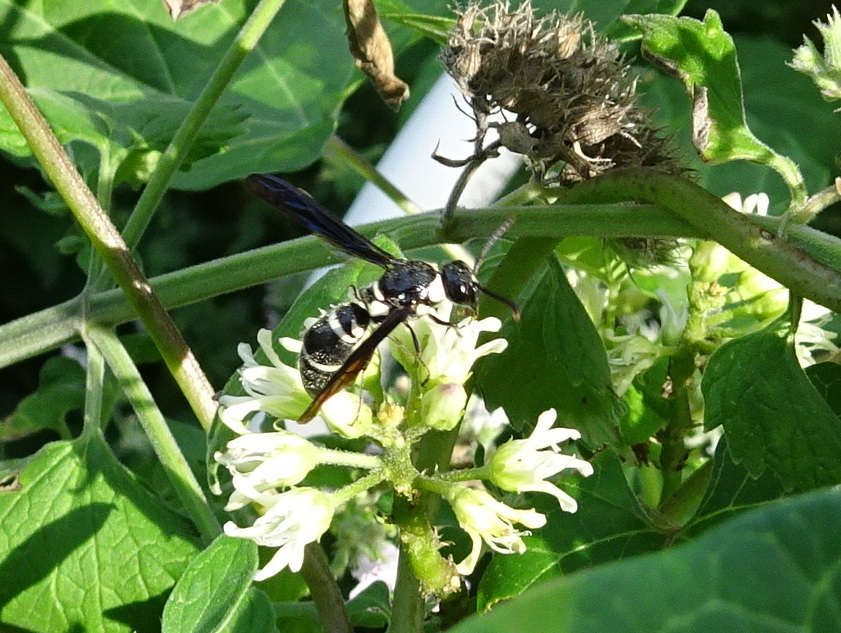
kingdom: Animalia
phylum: Arthropoda
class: Insecta
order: Hymenoptera
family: Eumenidae
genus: Pseudodynerus
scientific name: Pseudodynerus quadrisectus
